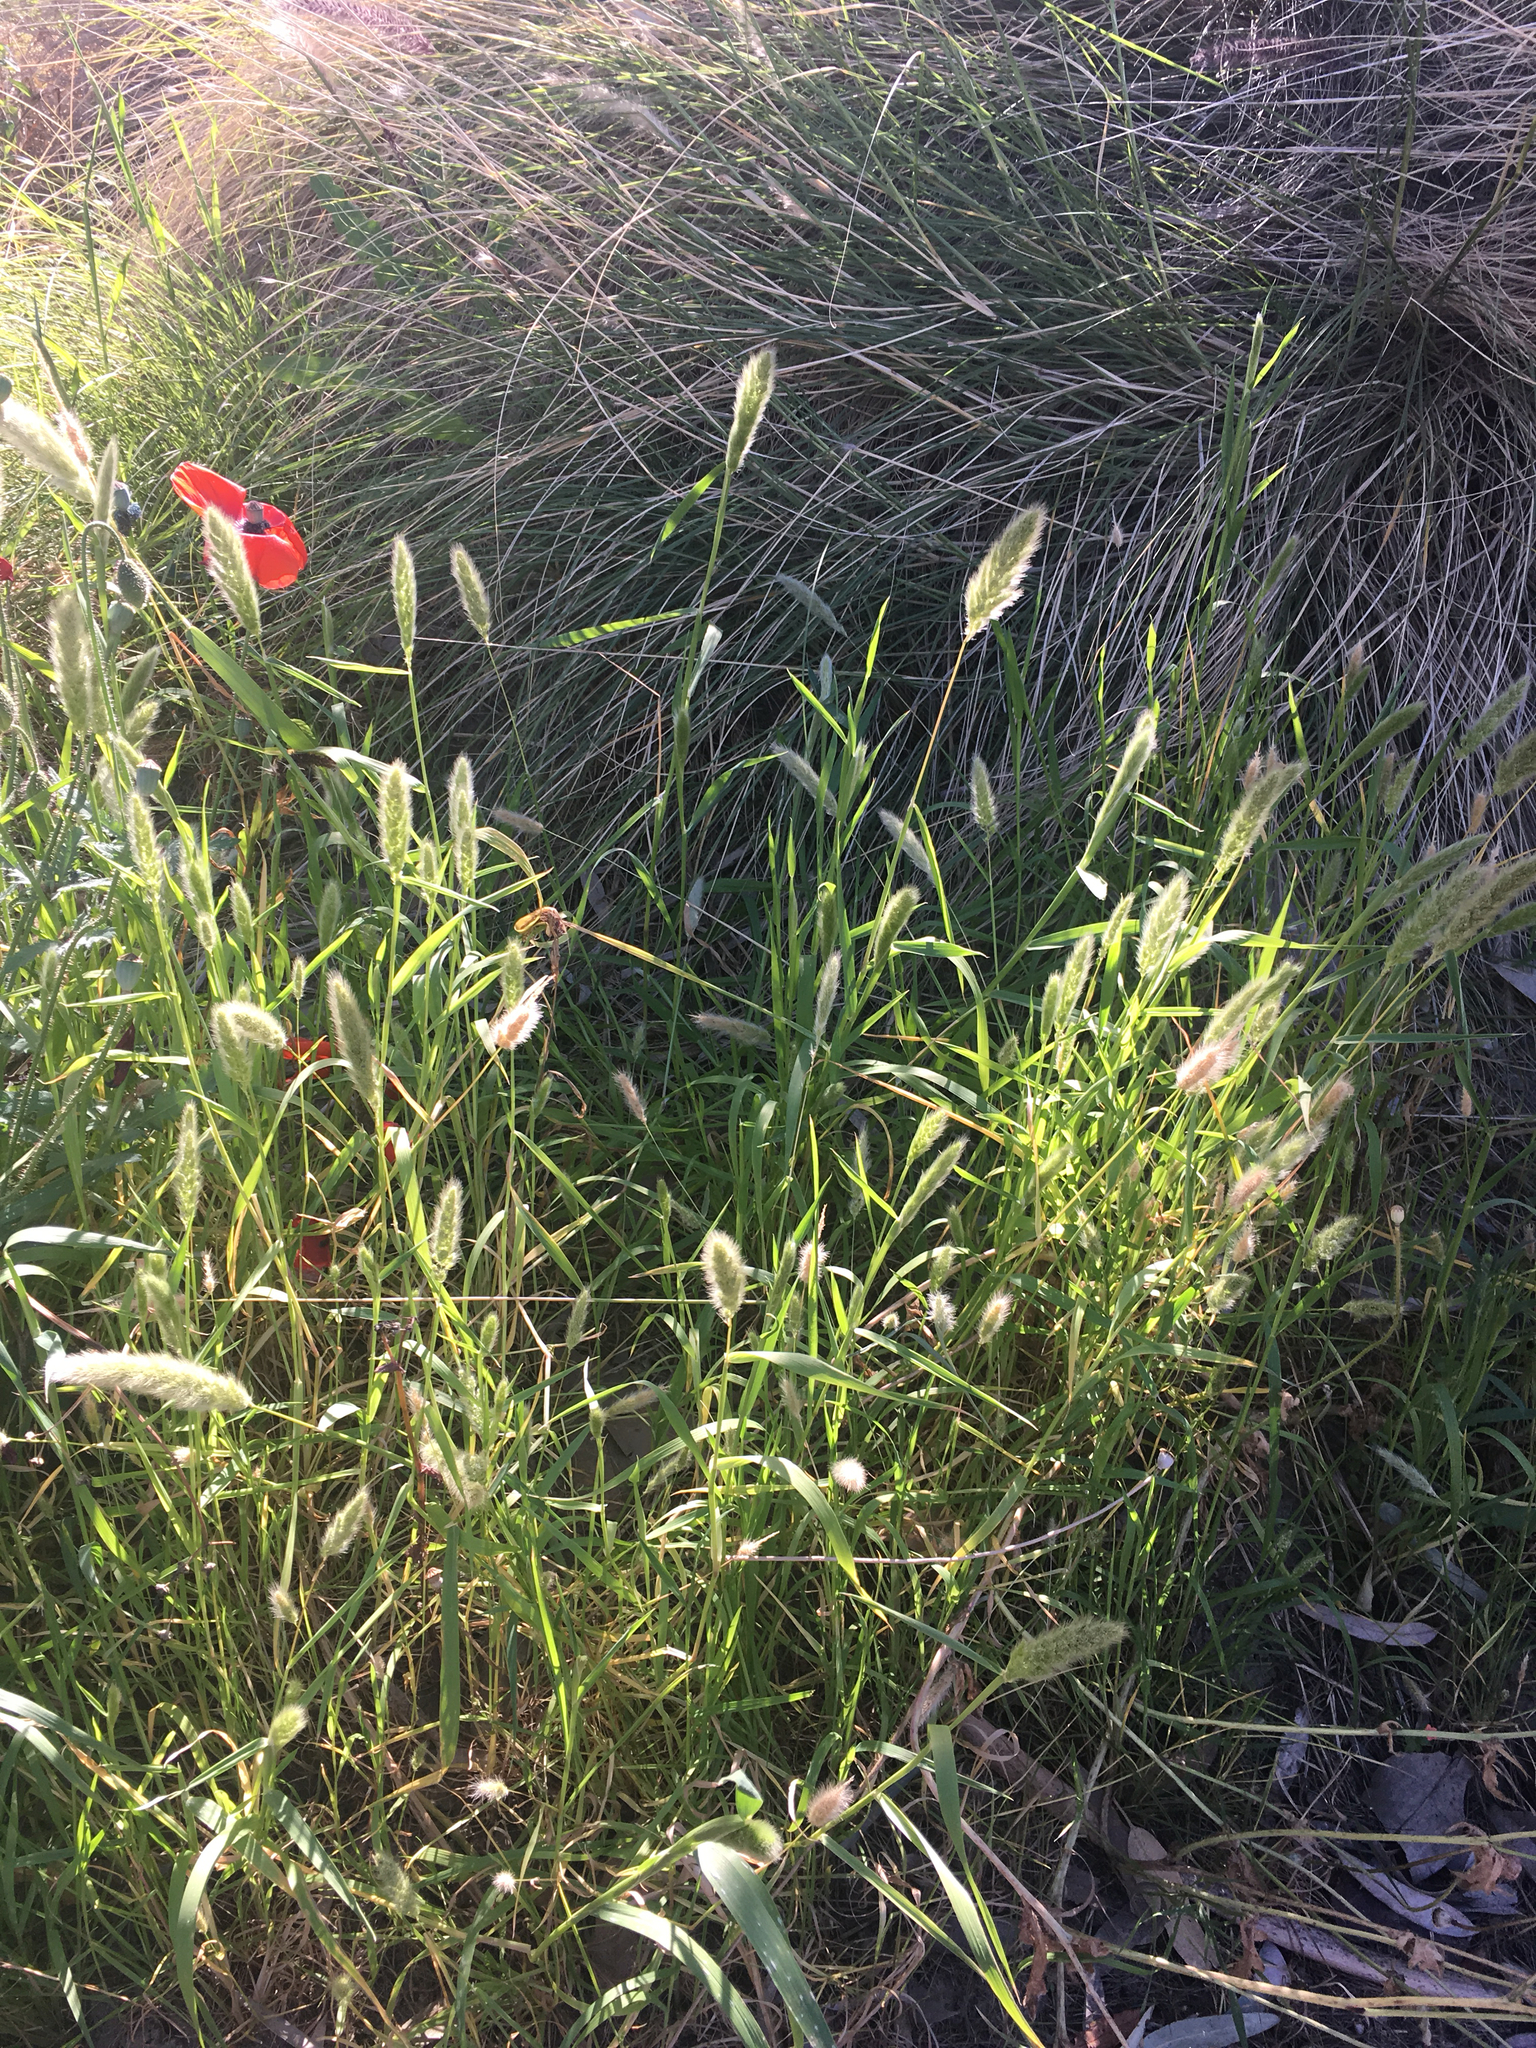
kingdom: Plantae
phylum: Tracheophyta
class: Liliopsida
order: Poales
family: Poaceae
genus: Polypogon
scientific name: Polypogon monspeliensis
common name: Annual rabbitsfoot grass
